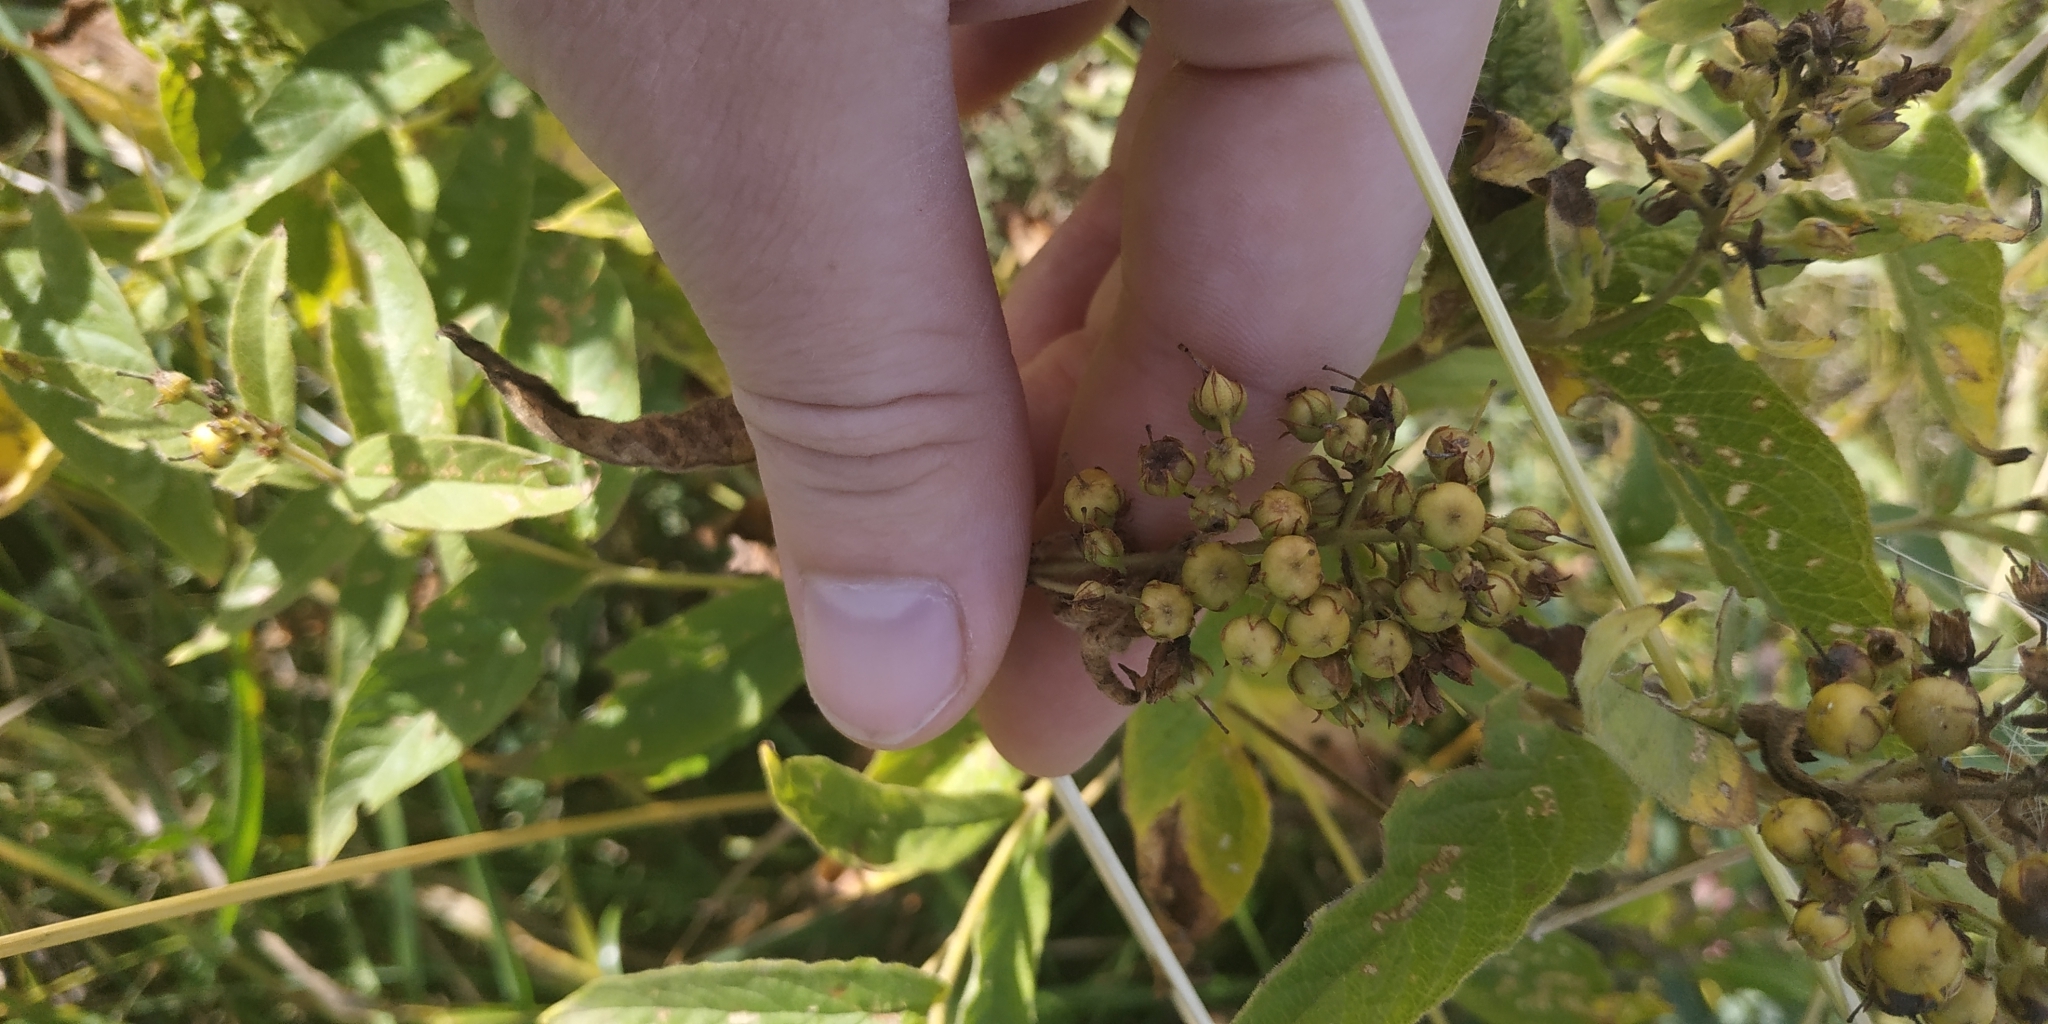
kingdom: Plantae
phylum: Tracheophyta
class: Magnoliopsida
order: Ericales
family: Primulaceae
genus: Lysimachia
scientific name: Lysimachia vulgaris
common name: Yellow loosestrife
